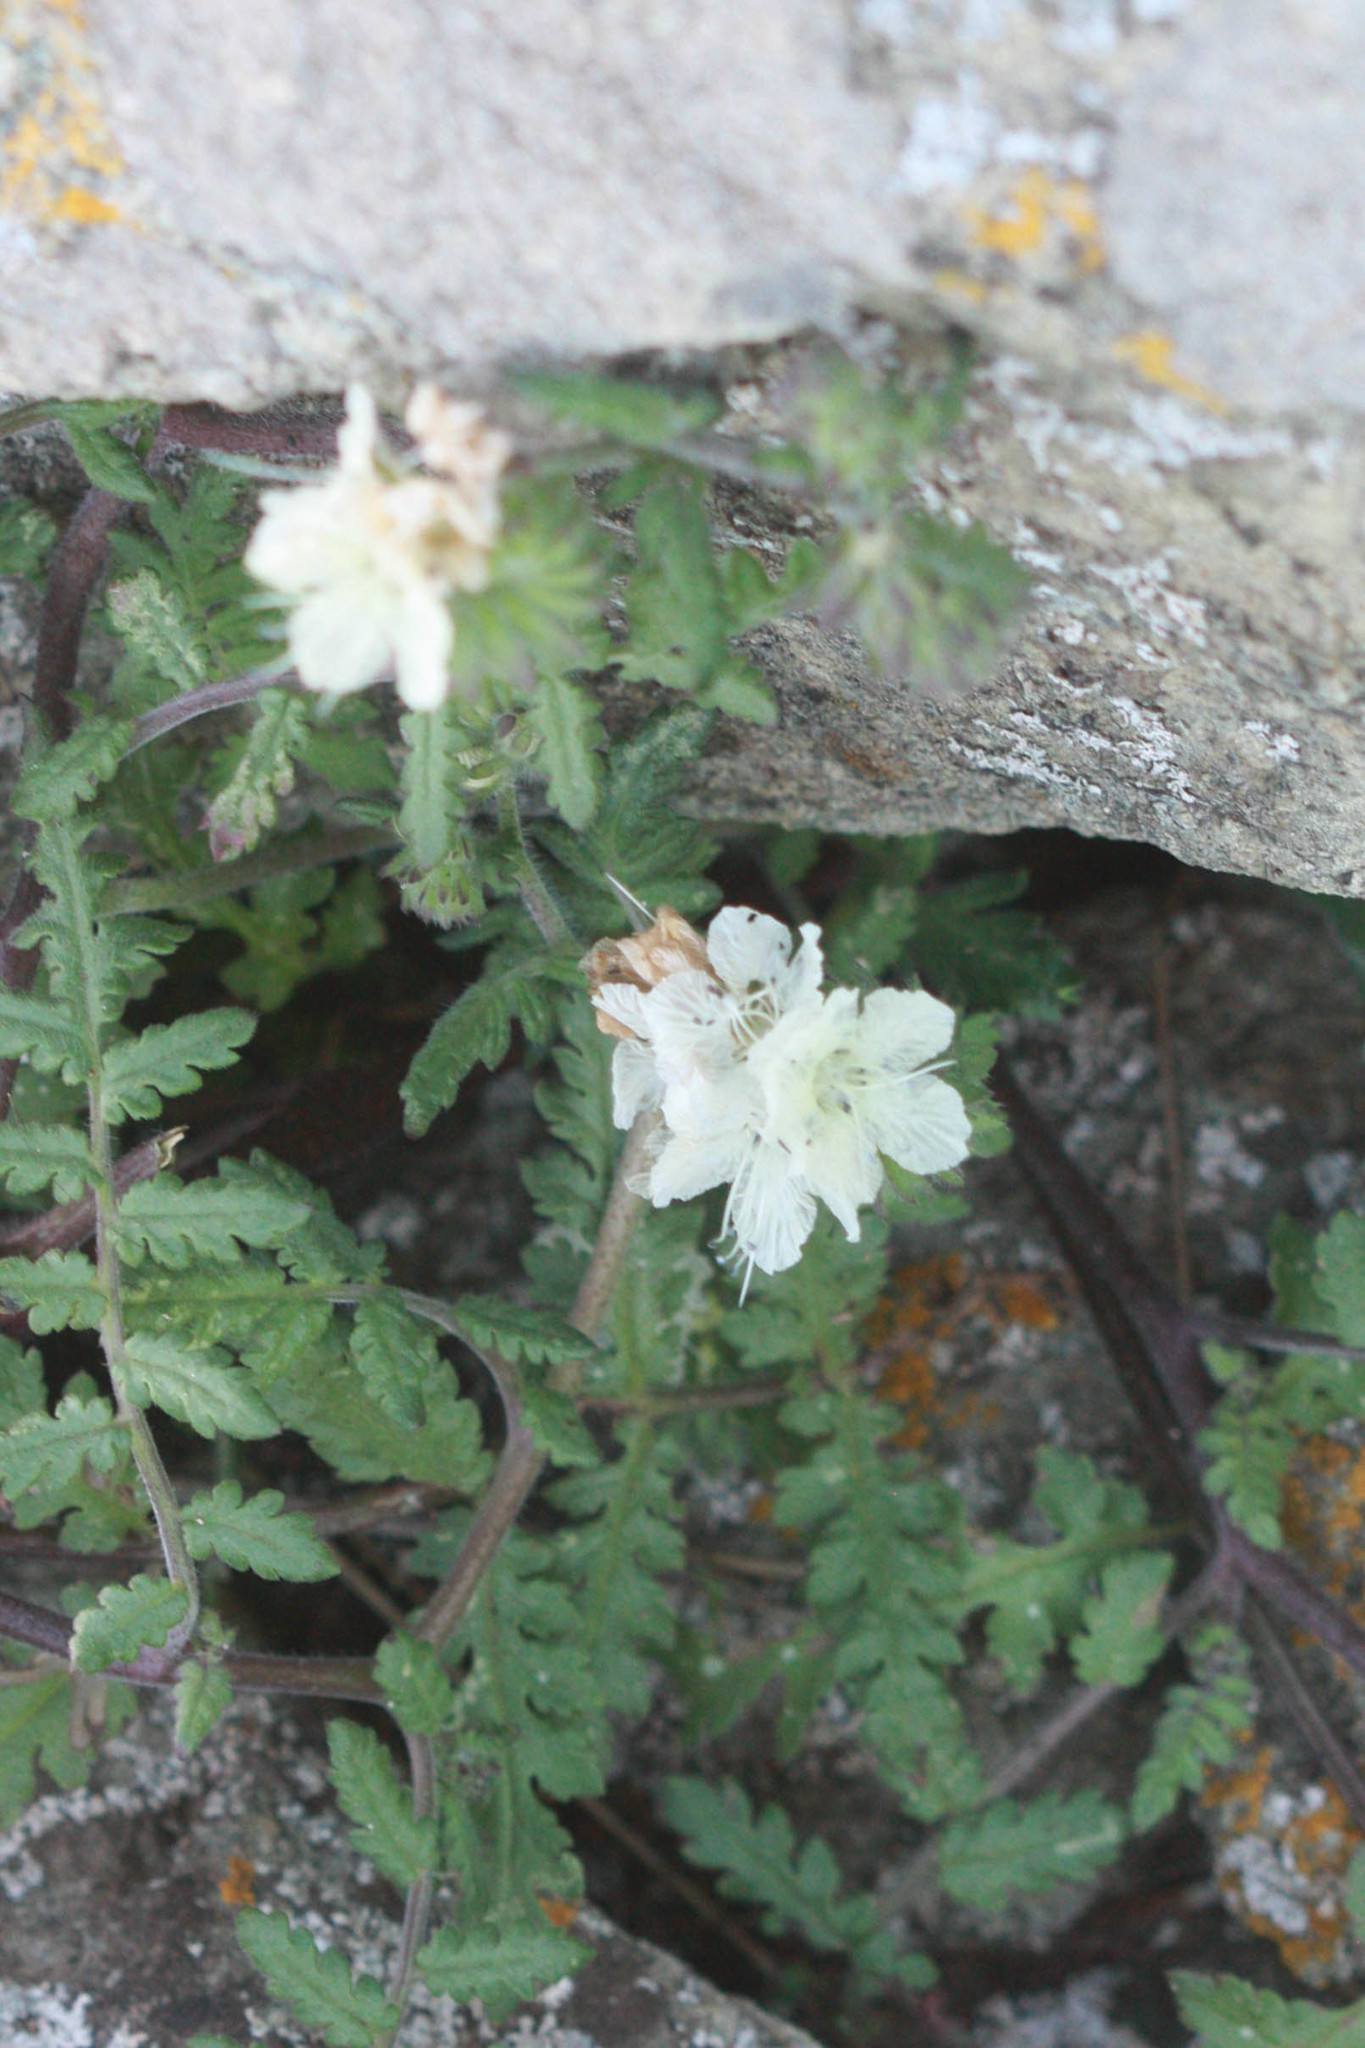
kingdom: Plantae
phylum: Tracheophyta
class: Magnoliopsida
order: Boraginales
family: Hydrophyllaceae
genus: Phacelia
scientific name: Phacelia distans
